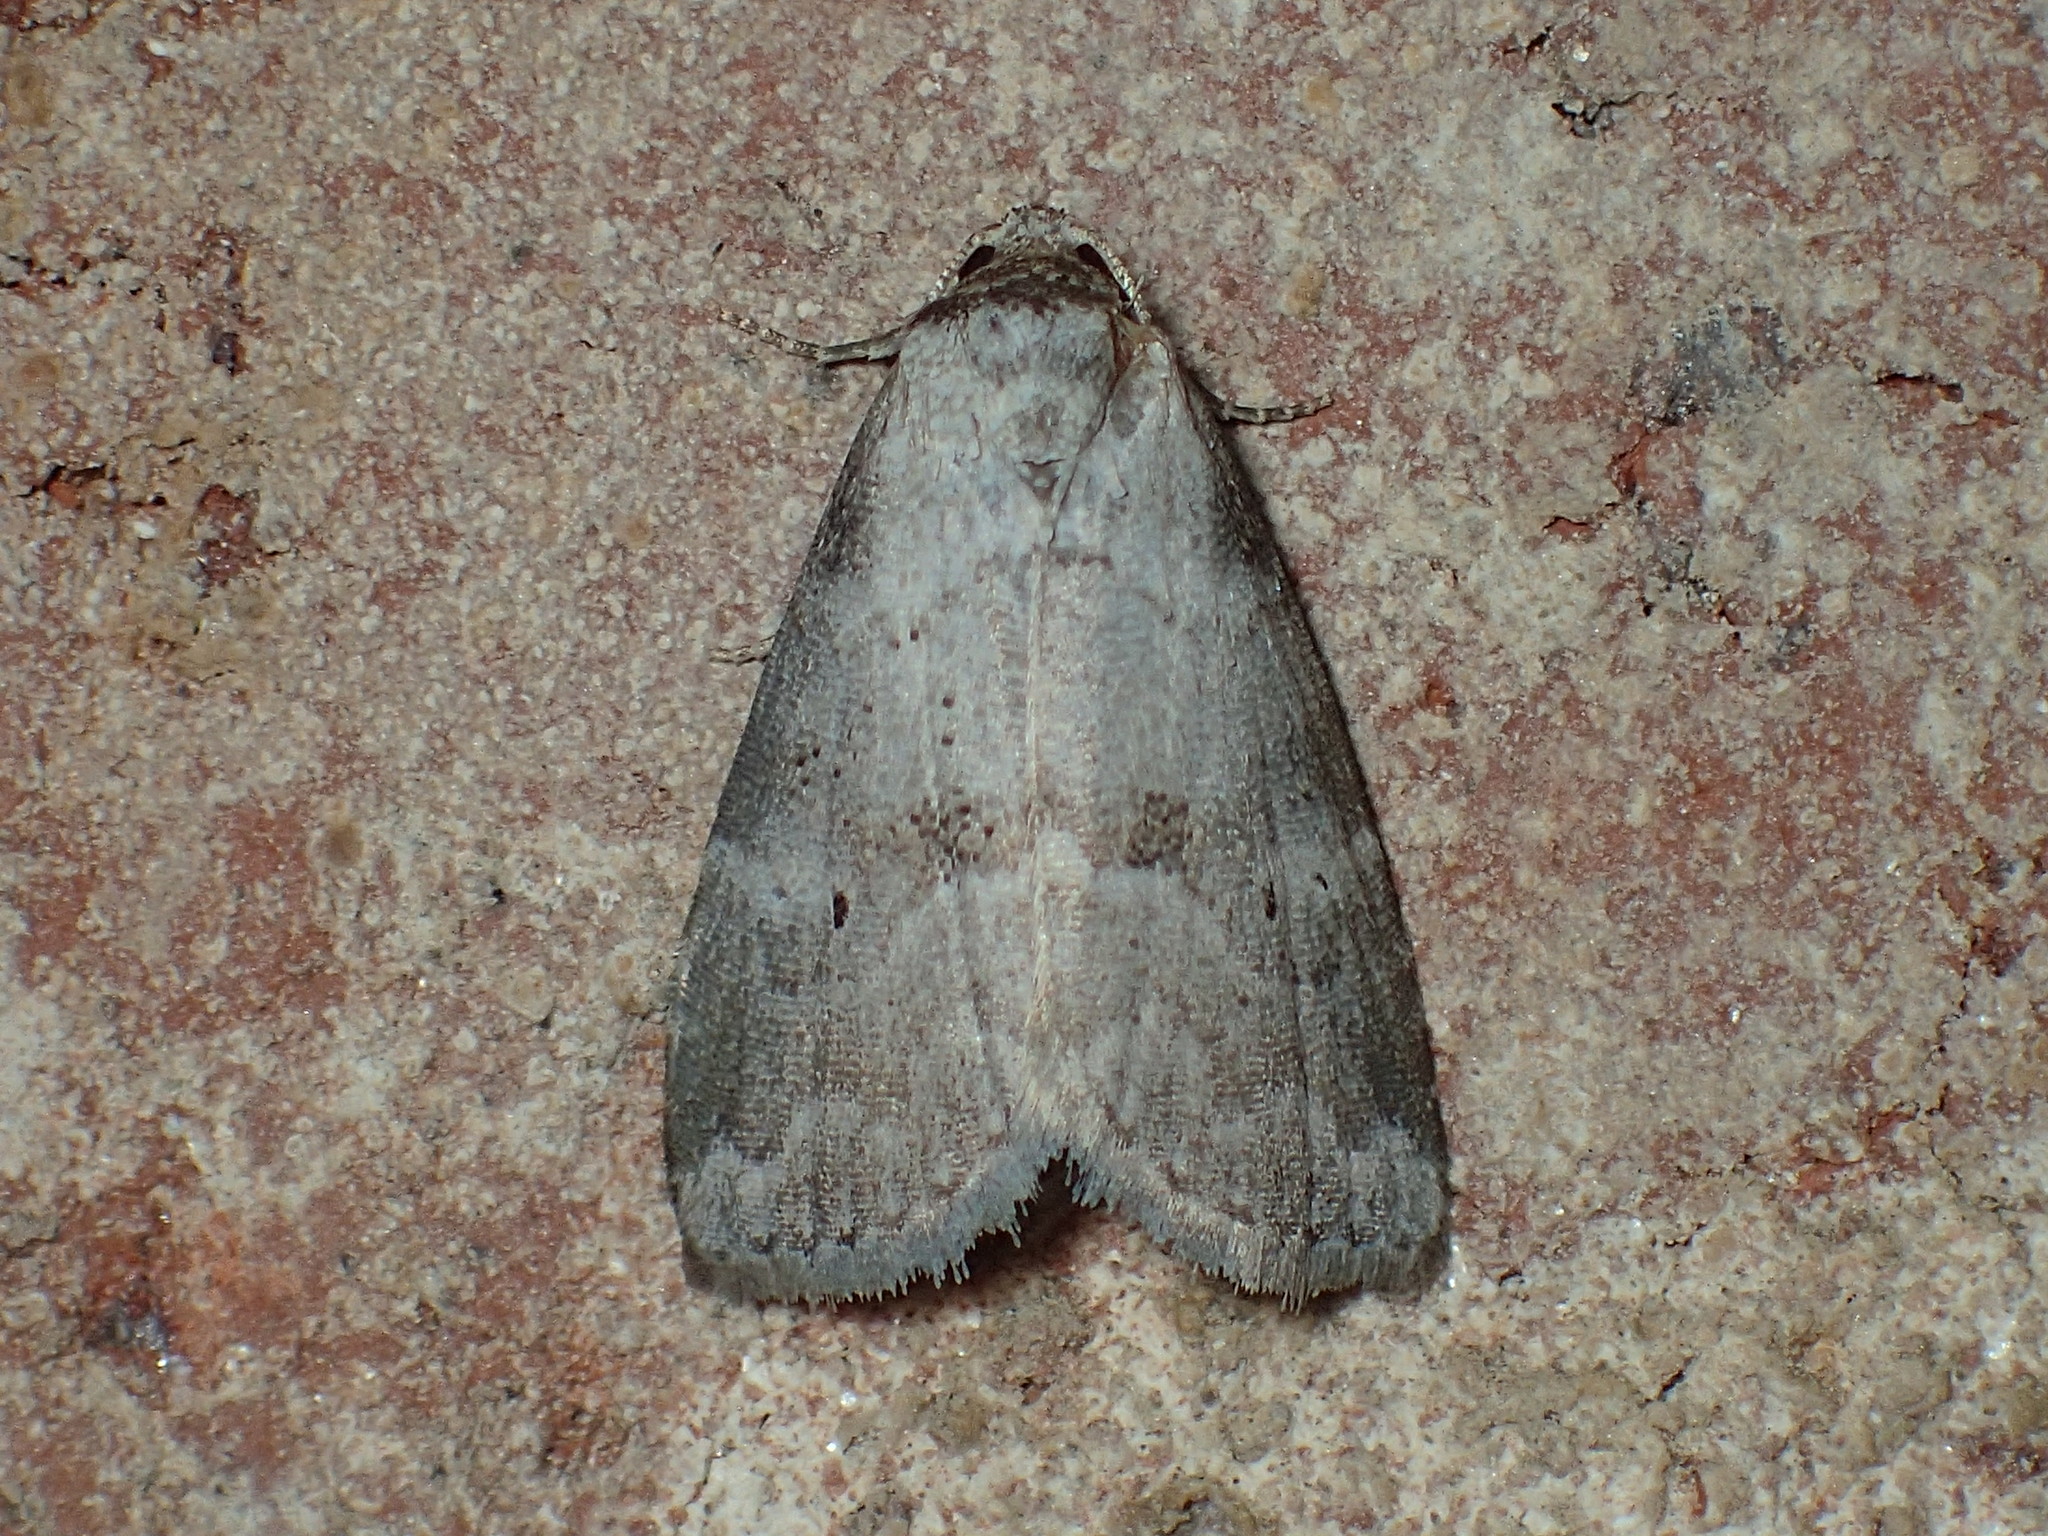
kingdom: Animalia
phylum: Arthropoda
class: Insecta
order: Lepidoptera
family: Erebidae
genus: Hyperstrotia
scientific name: Hyperstrotia pervertens
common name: Dotted graylet
